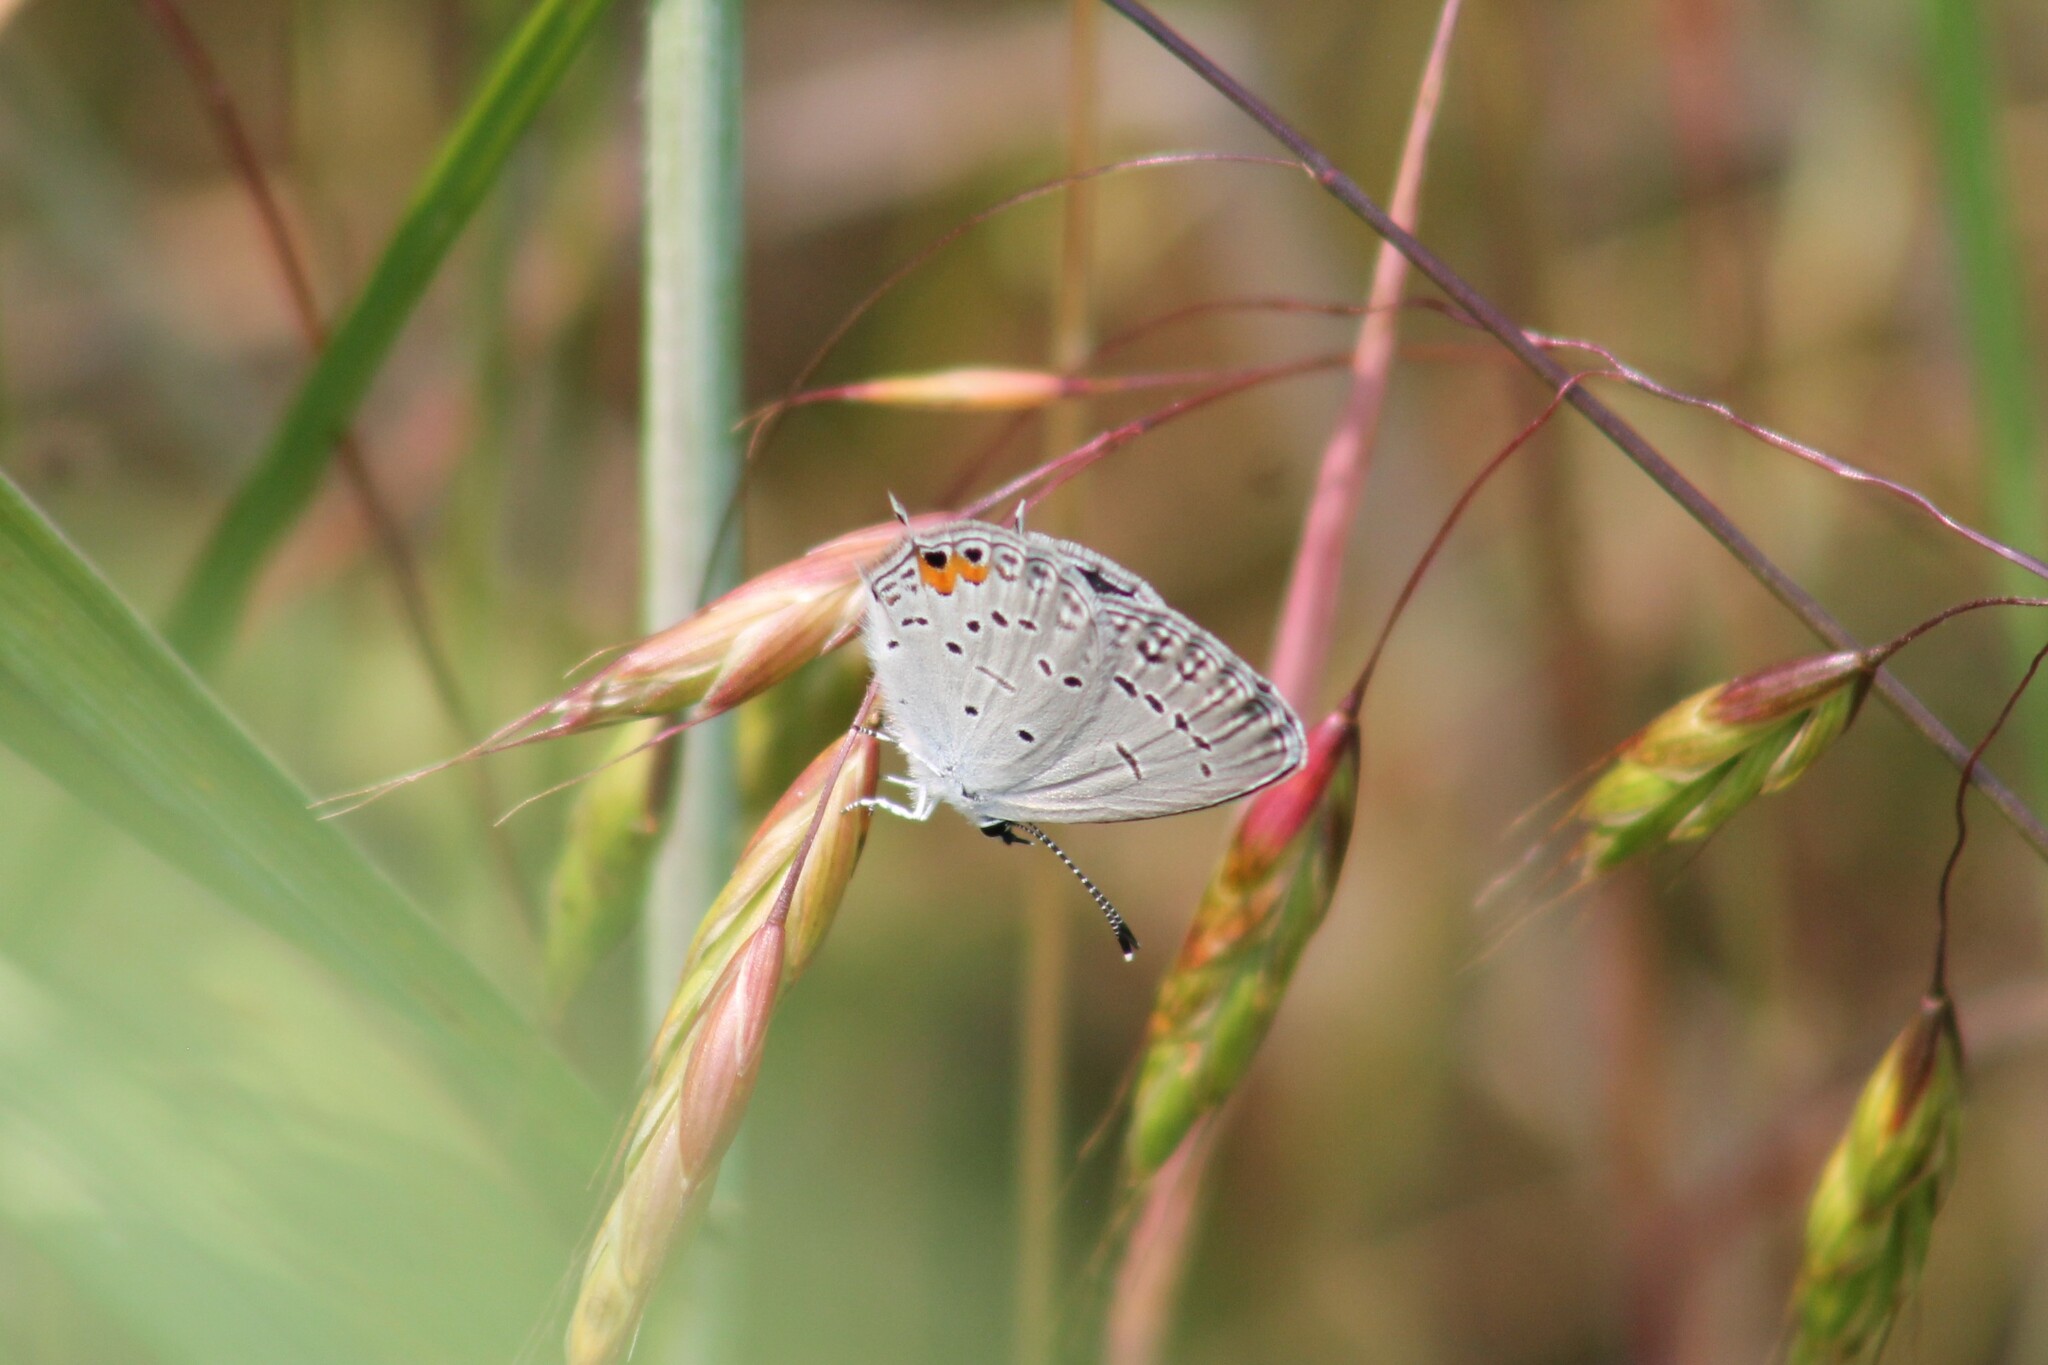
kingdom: Animalia
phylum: Arthropoda
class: Insecta
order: Lepidoptera
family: Lycaenidae
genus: Elkalyce
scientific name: Elkalyce comyntas
